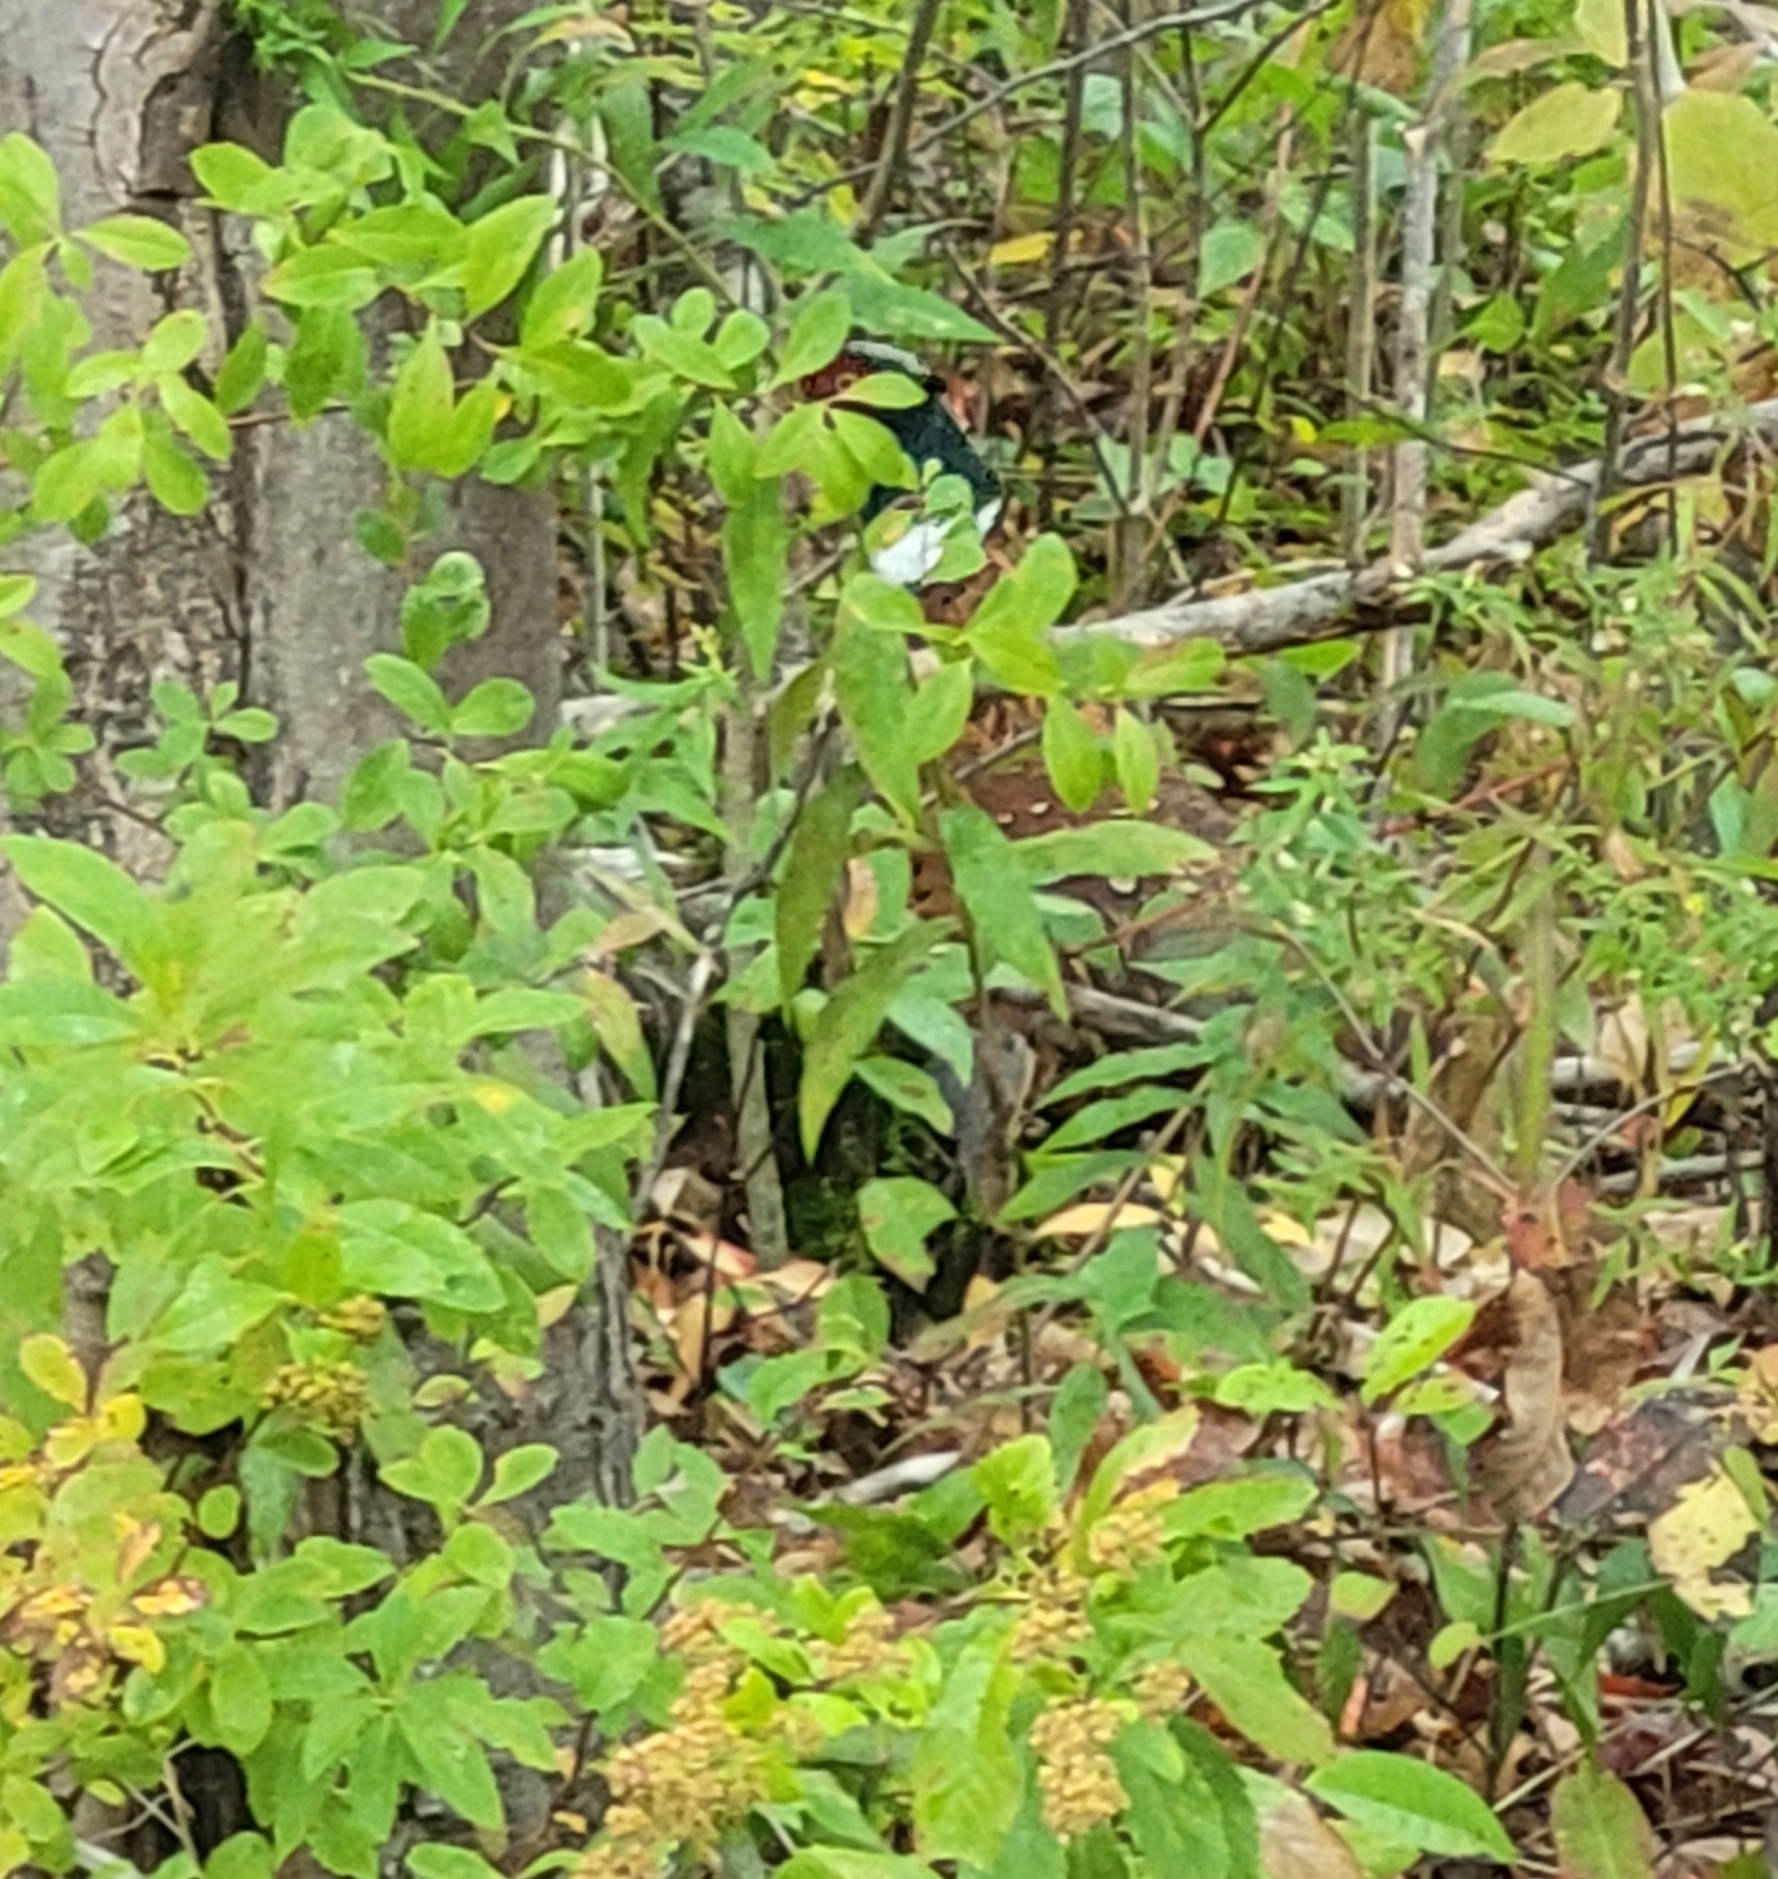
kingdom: Animalia
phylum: Chordata
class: Aves
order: Galliformes
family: Phasianidae
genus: Phasianus
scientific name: Phasianus colchicus
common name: Common pheasant
